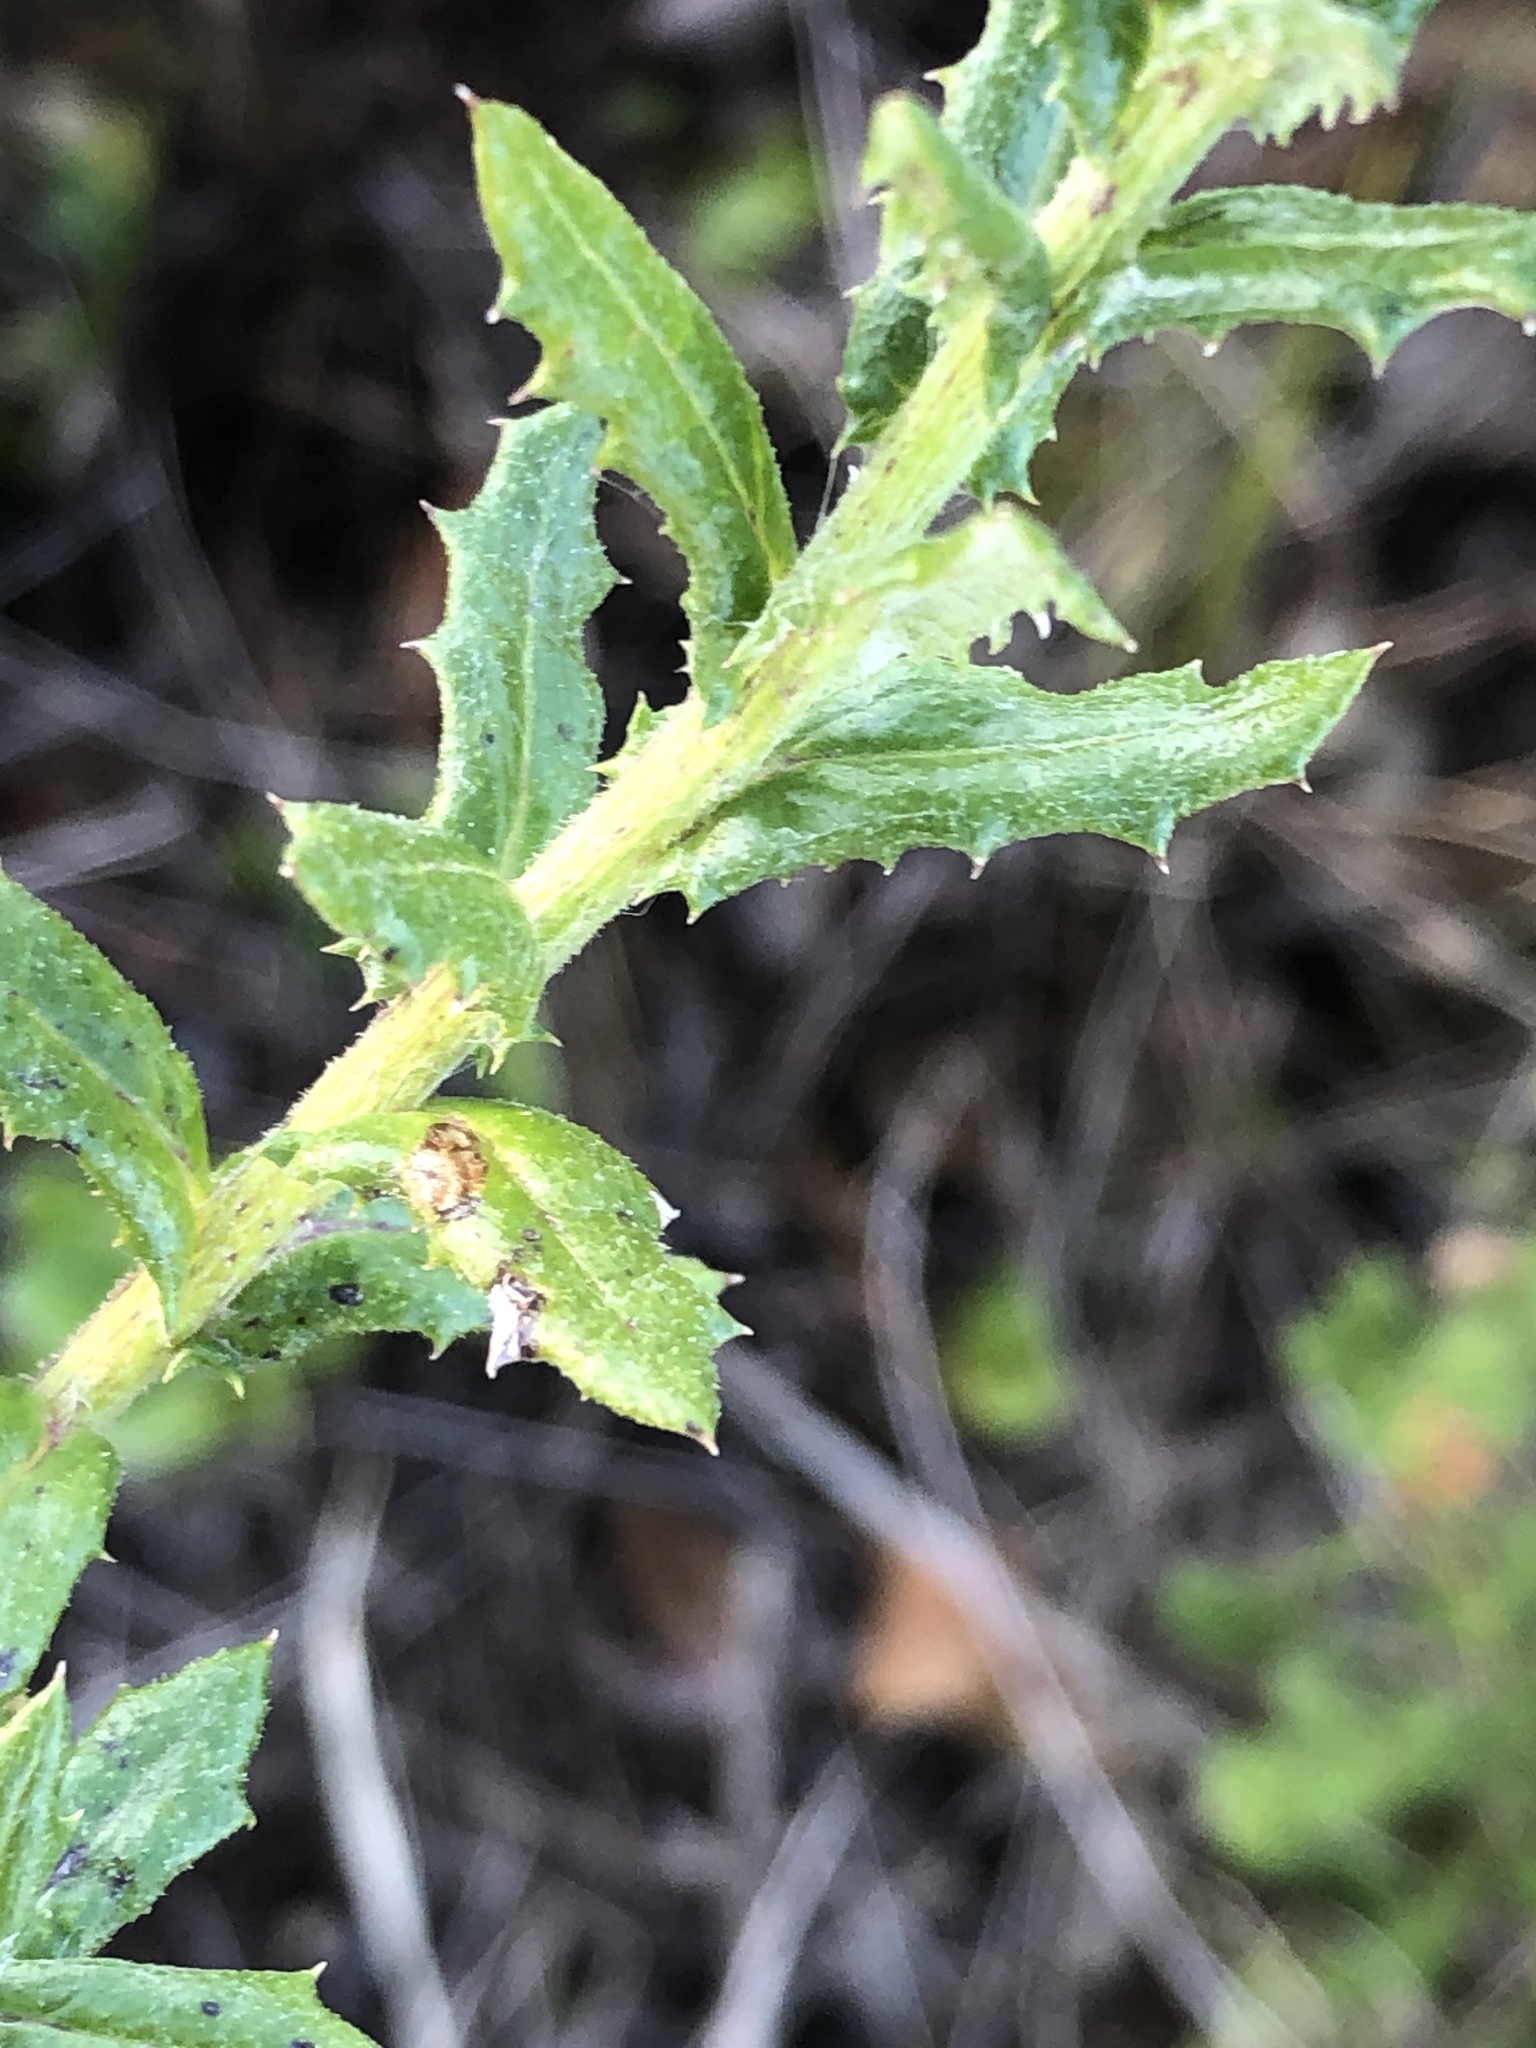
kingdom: Plantae
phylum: Tracheophyta
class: Magnoliopsida
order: Asterales
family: Asteraceae
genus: Senecio
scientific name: Senecio ilicifolius
